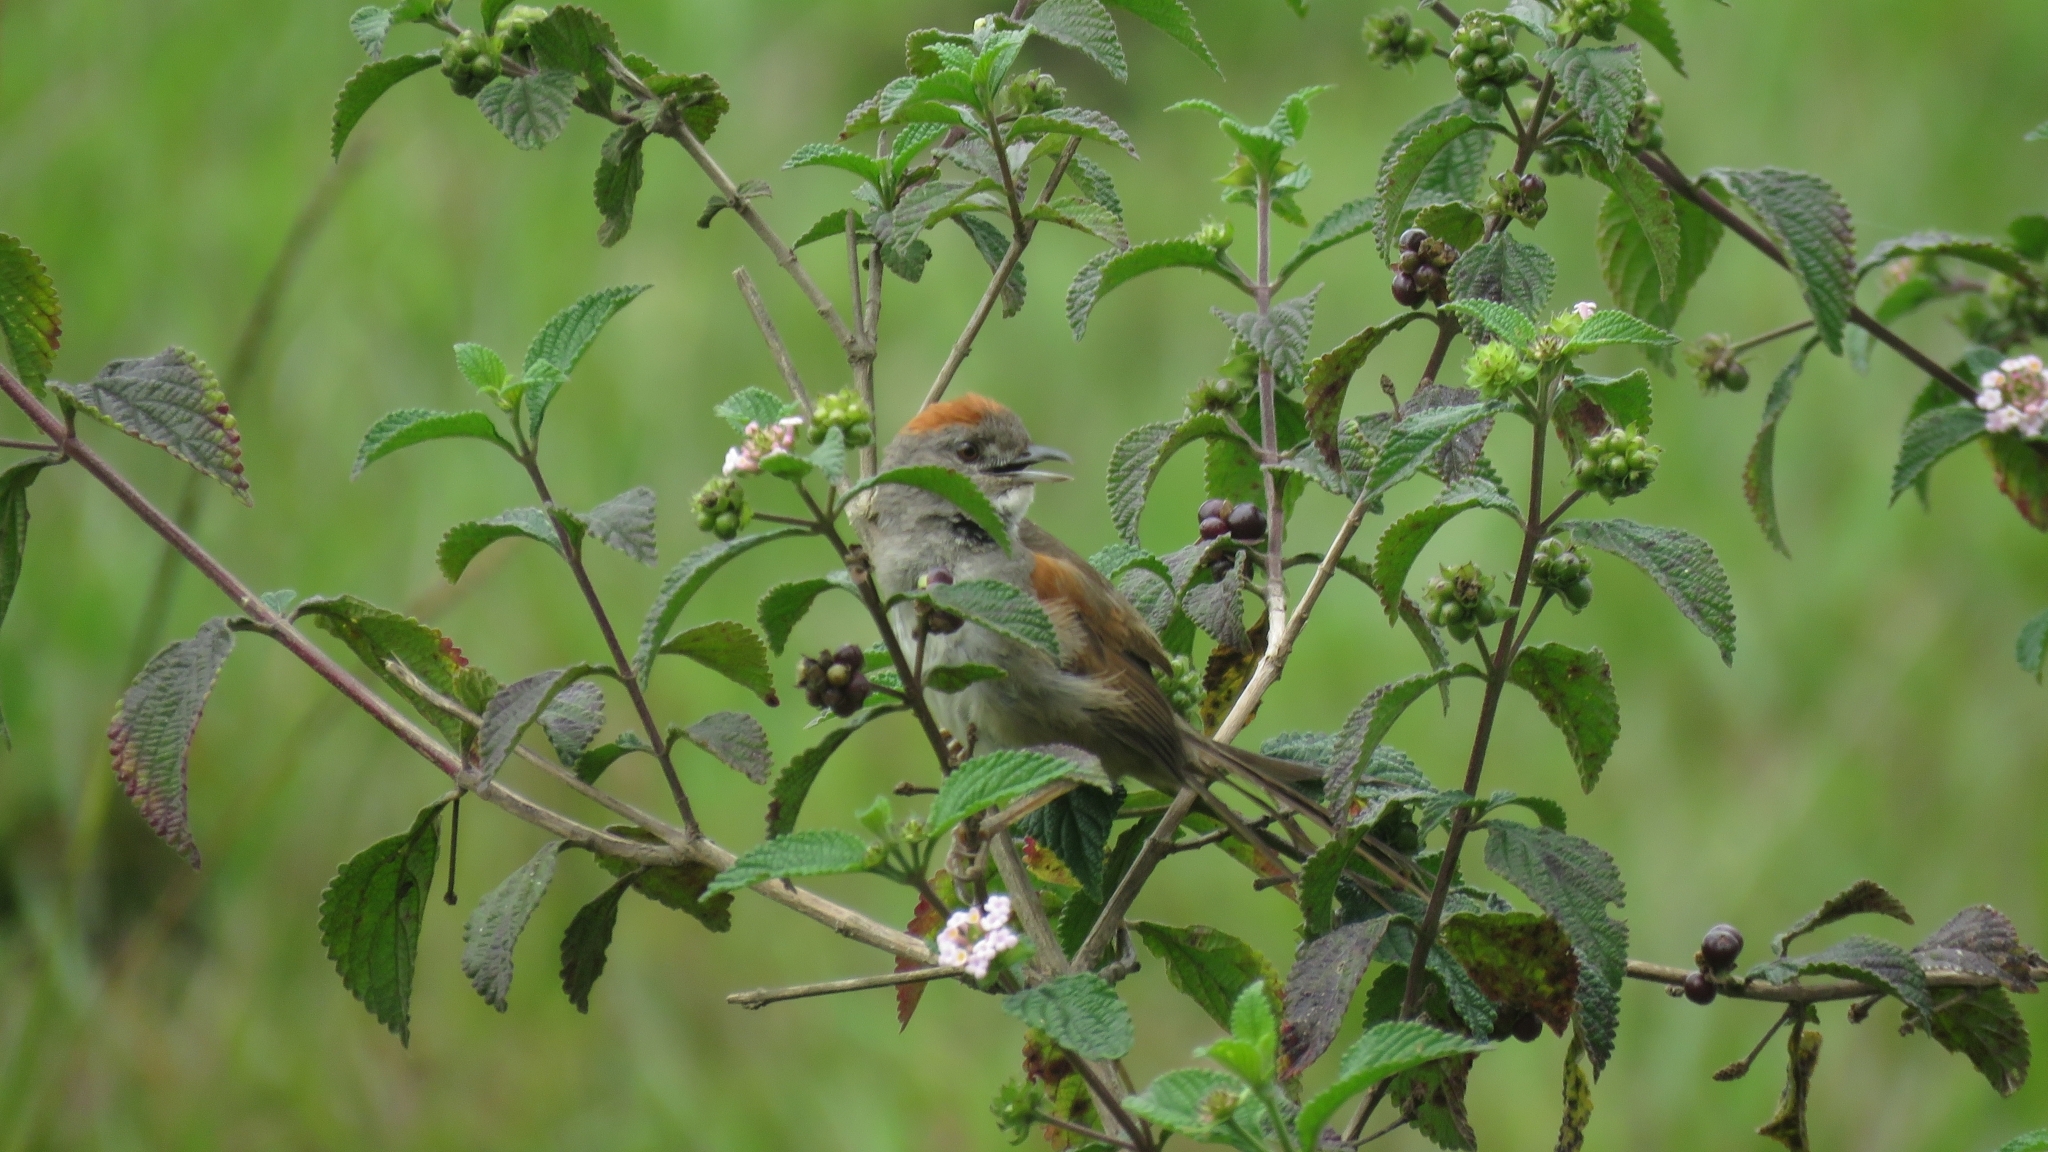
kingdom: Animalia
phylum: Chordata
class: Aves
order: Passeriformes
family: Furnariidae
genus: Synallaxis
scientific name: Synallaxis albescens
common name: Pale-breasted spinetail
